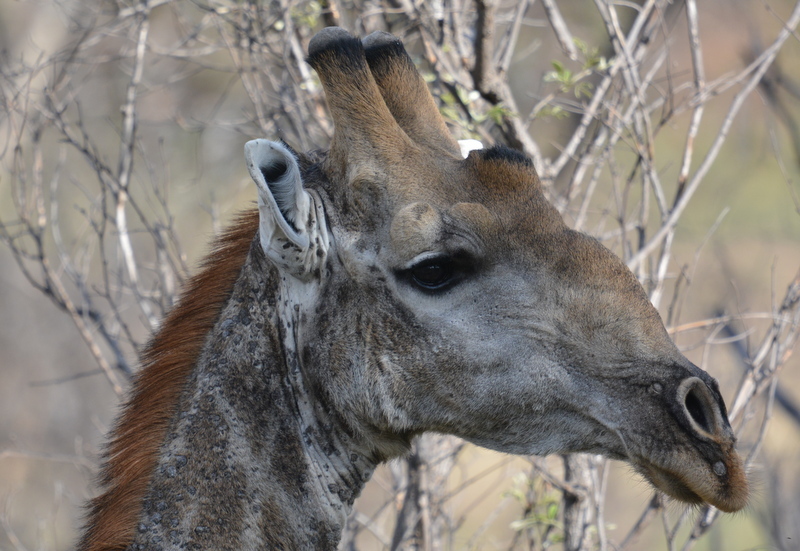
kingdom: Animalia
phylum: Chordata
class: Mammalia
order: Artiodactyla
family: Giraffidae
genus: Giraffa
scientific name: Giraffa giraffa
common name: Southern giraffe
